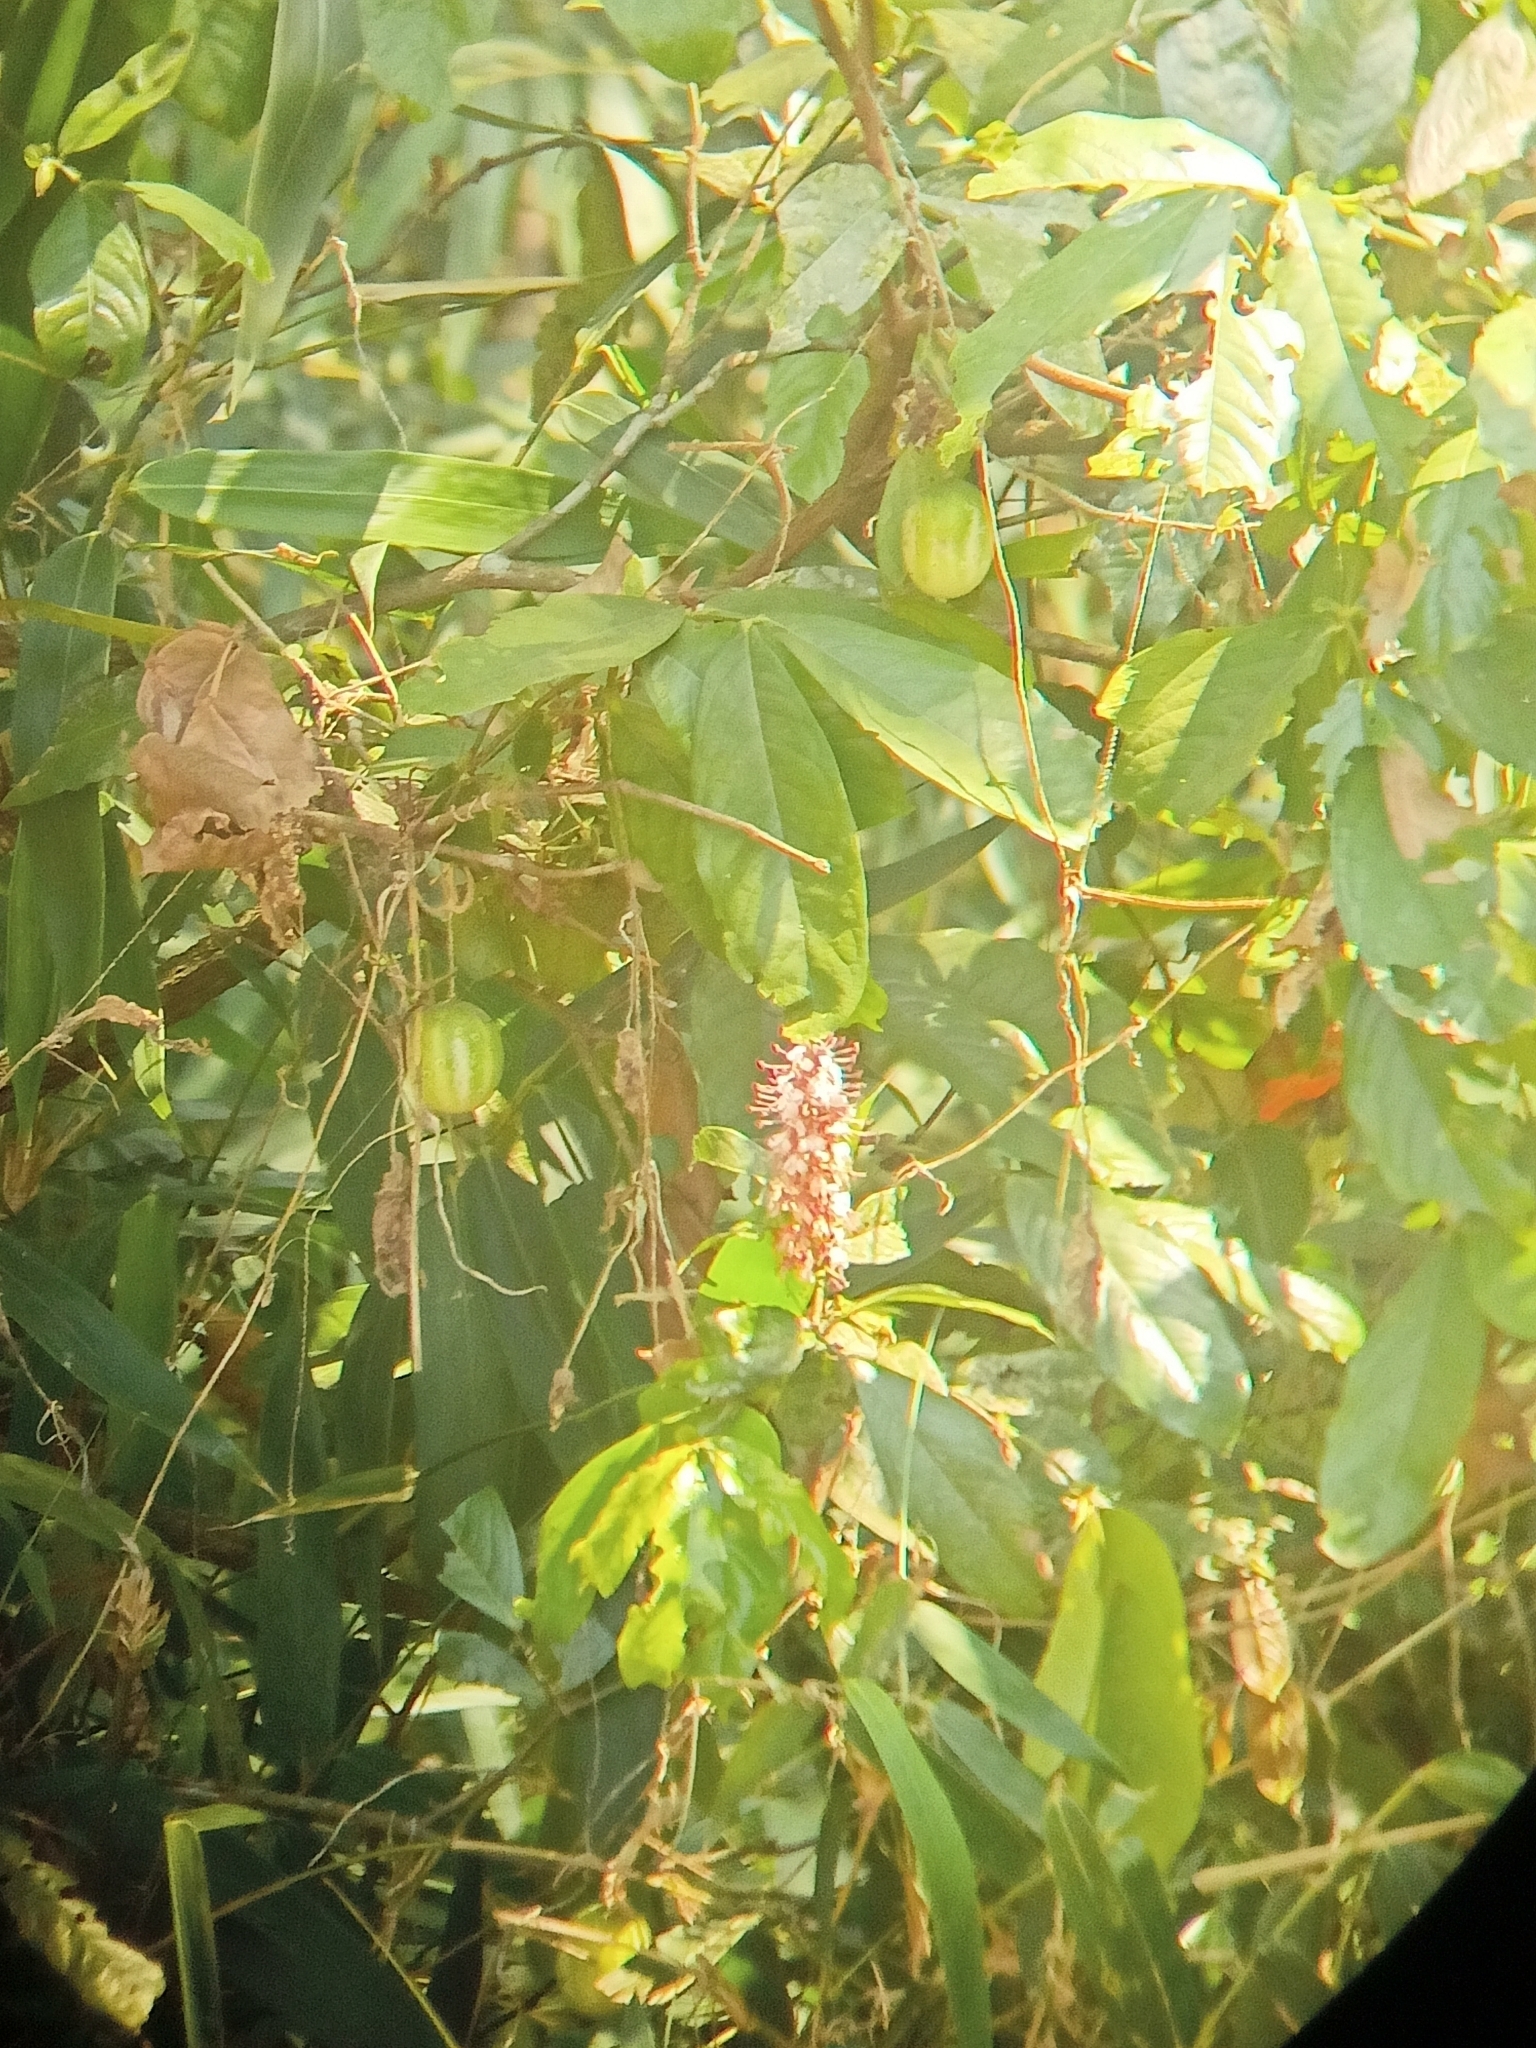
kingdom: Plantae
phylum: Tracheophyta
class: Magnoliopsida
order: Fabales
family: Fabaceae
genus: Humboldtia
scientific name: Humboldtia brunonis
